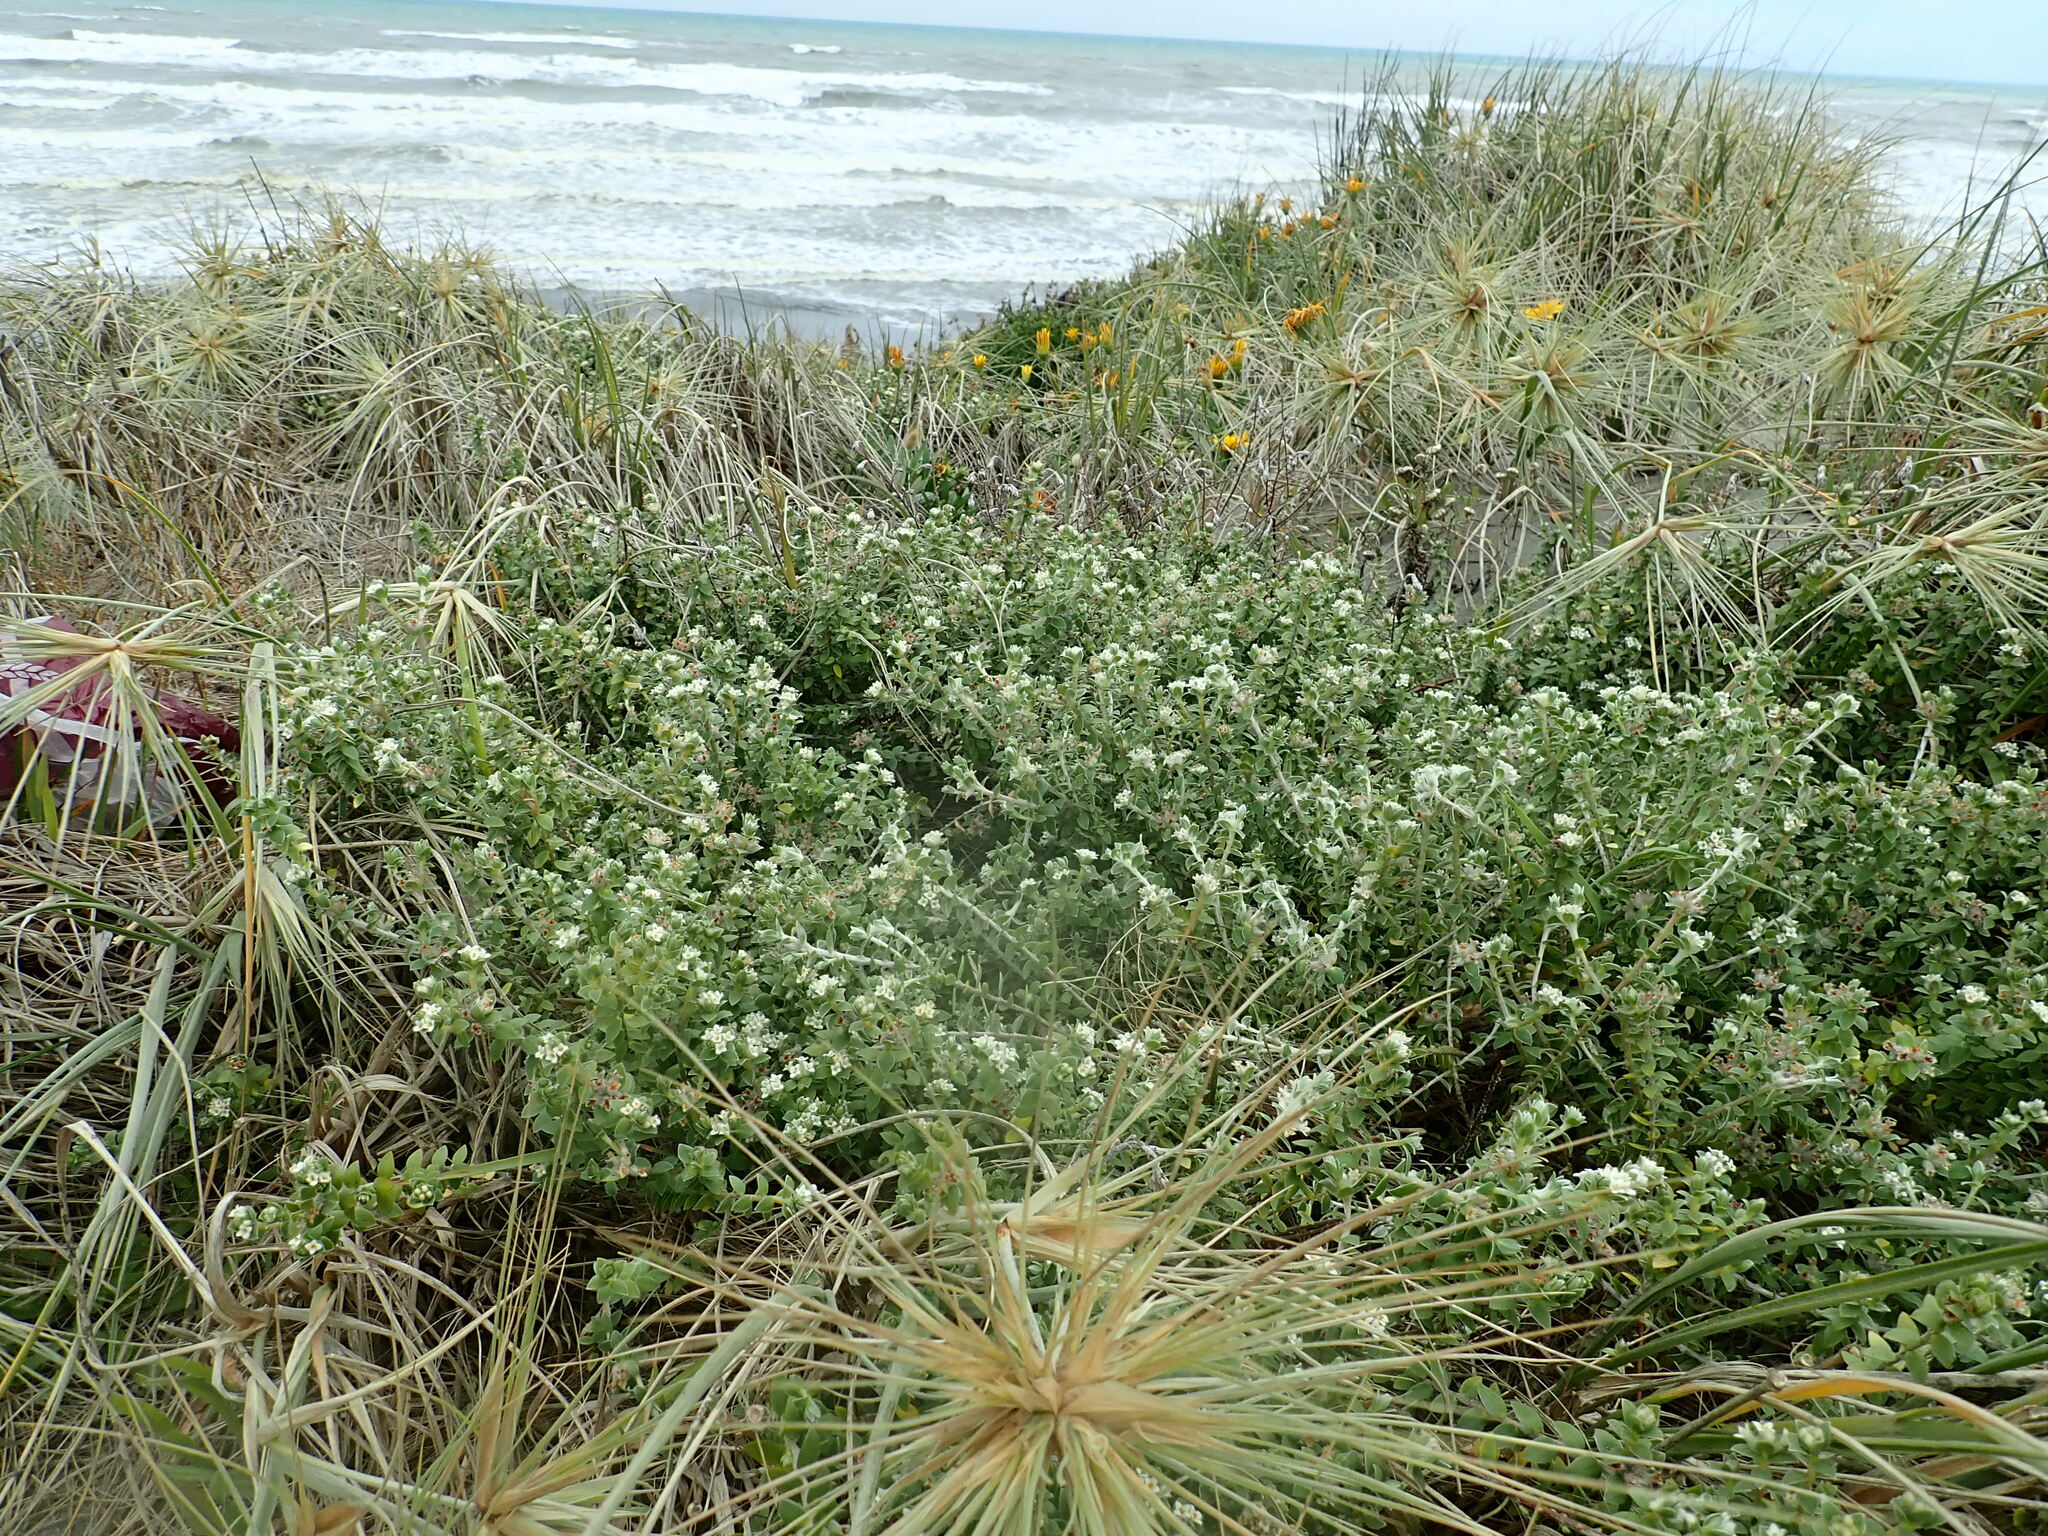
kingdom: Plantae
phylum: Tracheophyta
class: Magnoliopsida
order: Malvales
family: Thymelaeaceae
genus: Pimelea
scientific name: Pimelea villosa
